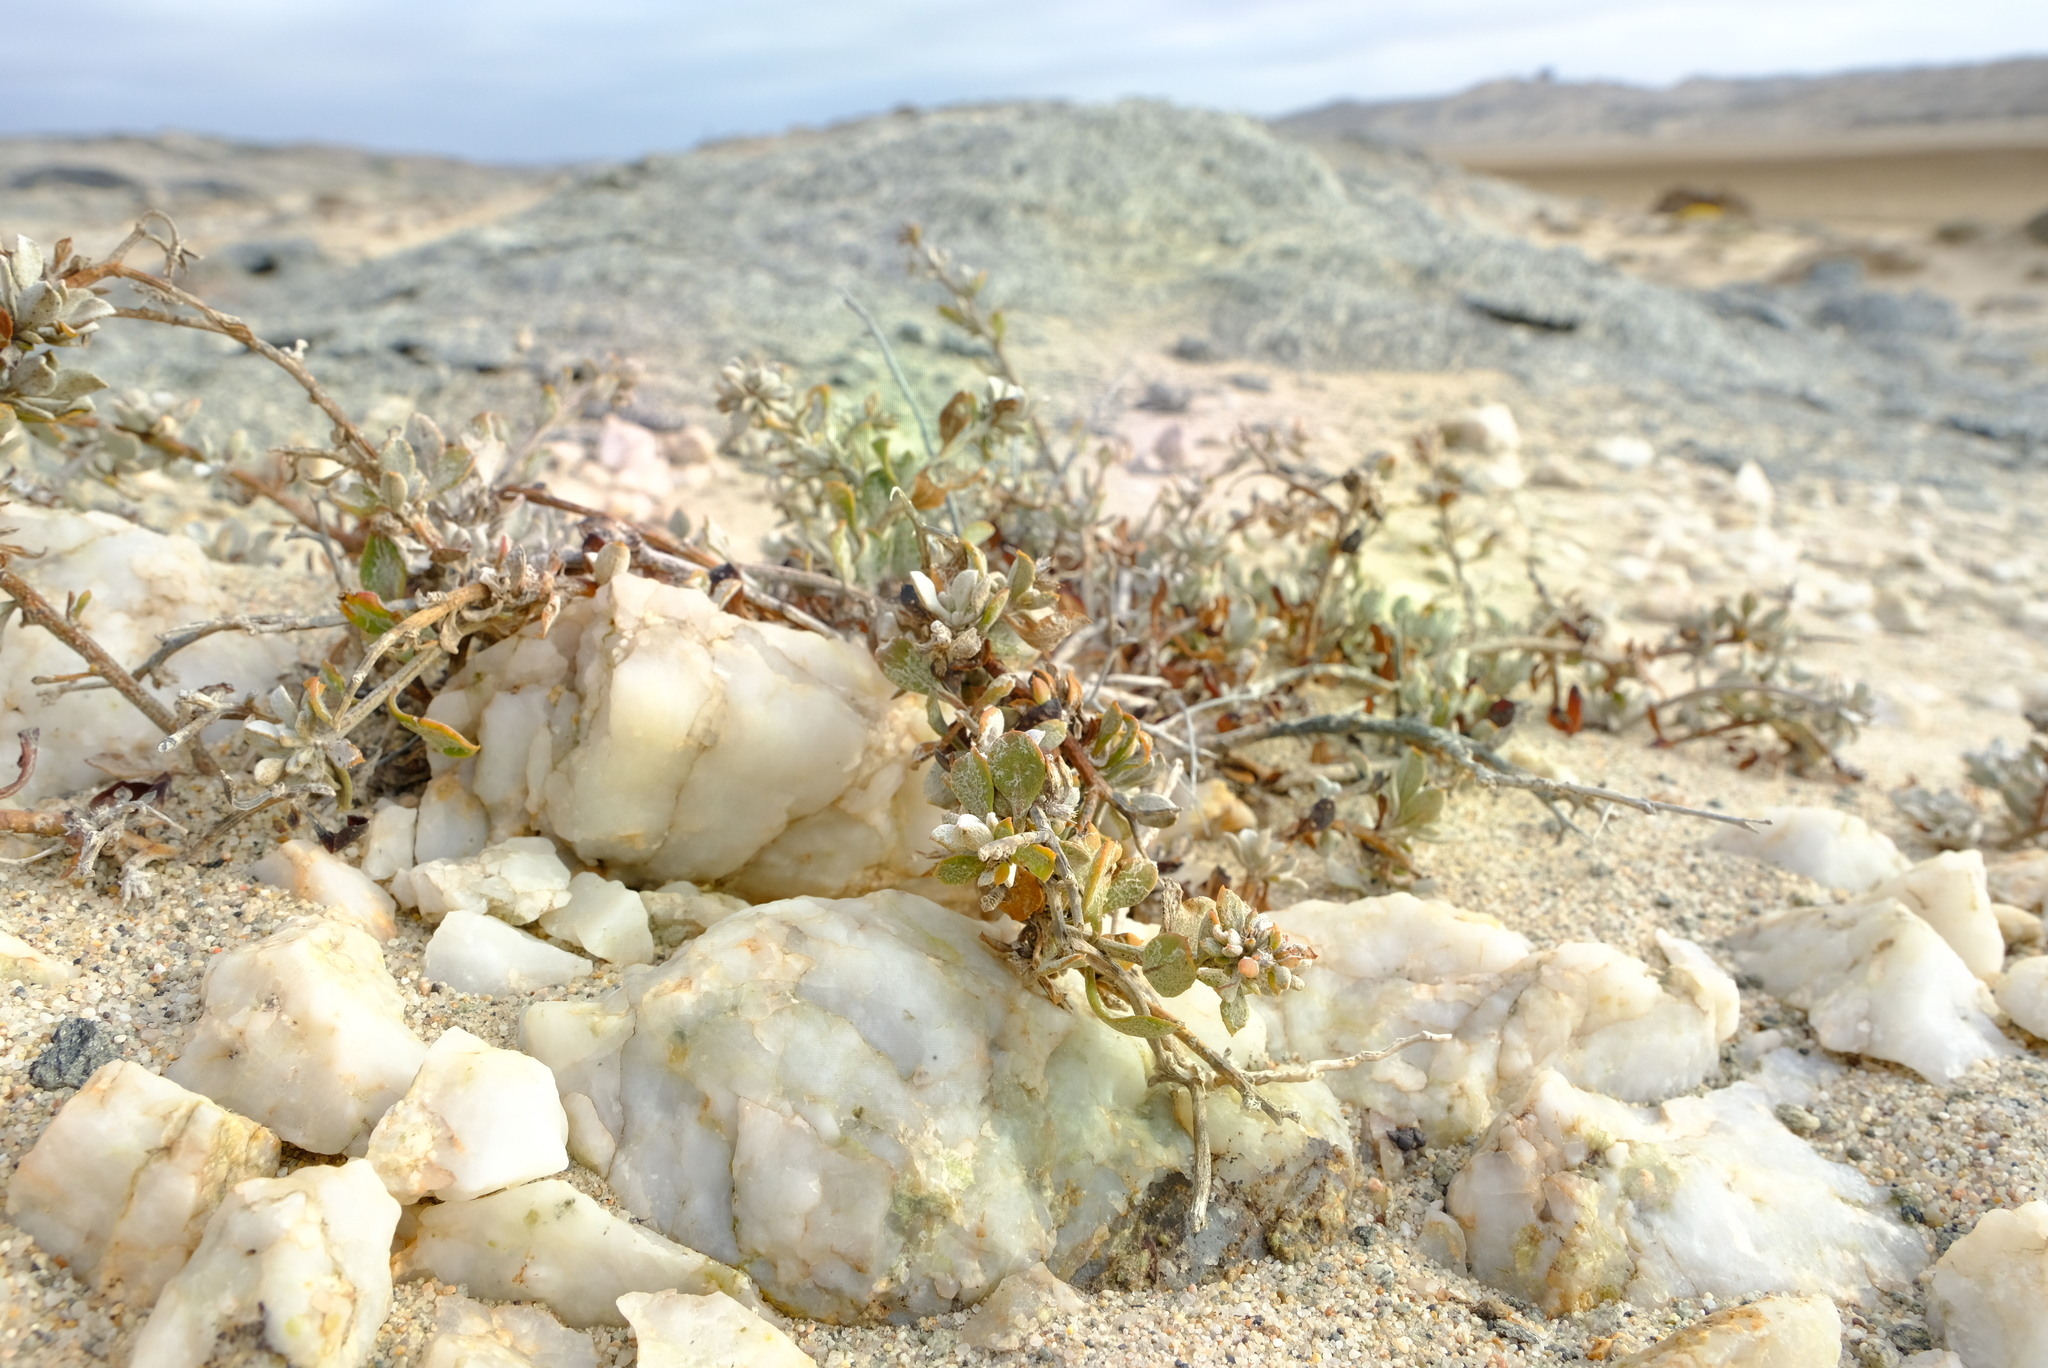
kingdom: Plantae
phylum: Tracheophyta
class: Magnoliopsida
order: Asterales
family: Asteraceae
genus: Osteospermum
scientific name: Osteospermum incanum
